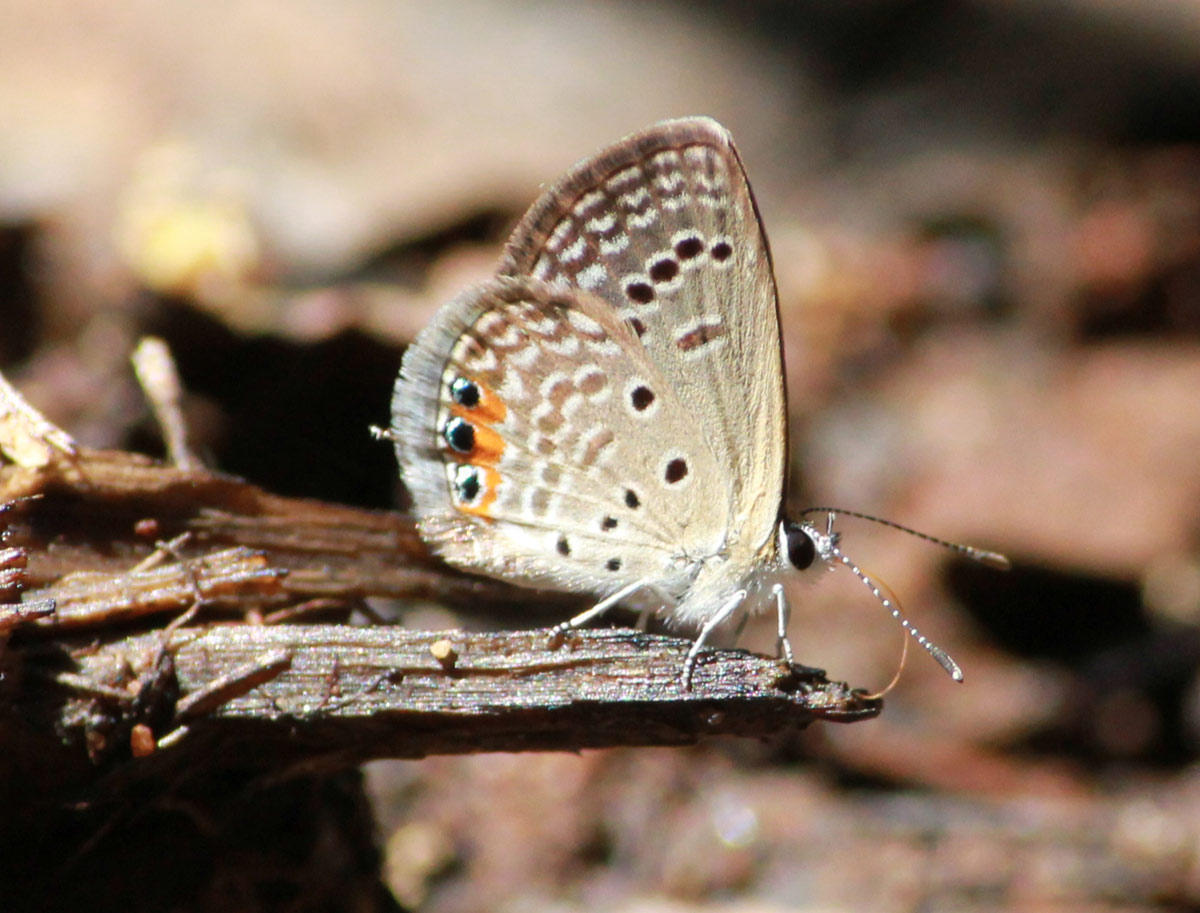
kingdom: Animalia
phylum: Arthropoda
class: Insecta
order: Lepidoptera
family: Lycaenidae
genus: Freyeria
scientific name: Freyeria trochylus
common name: Grass jewel
